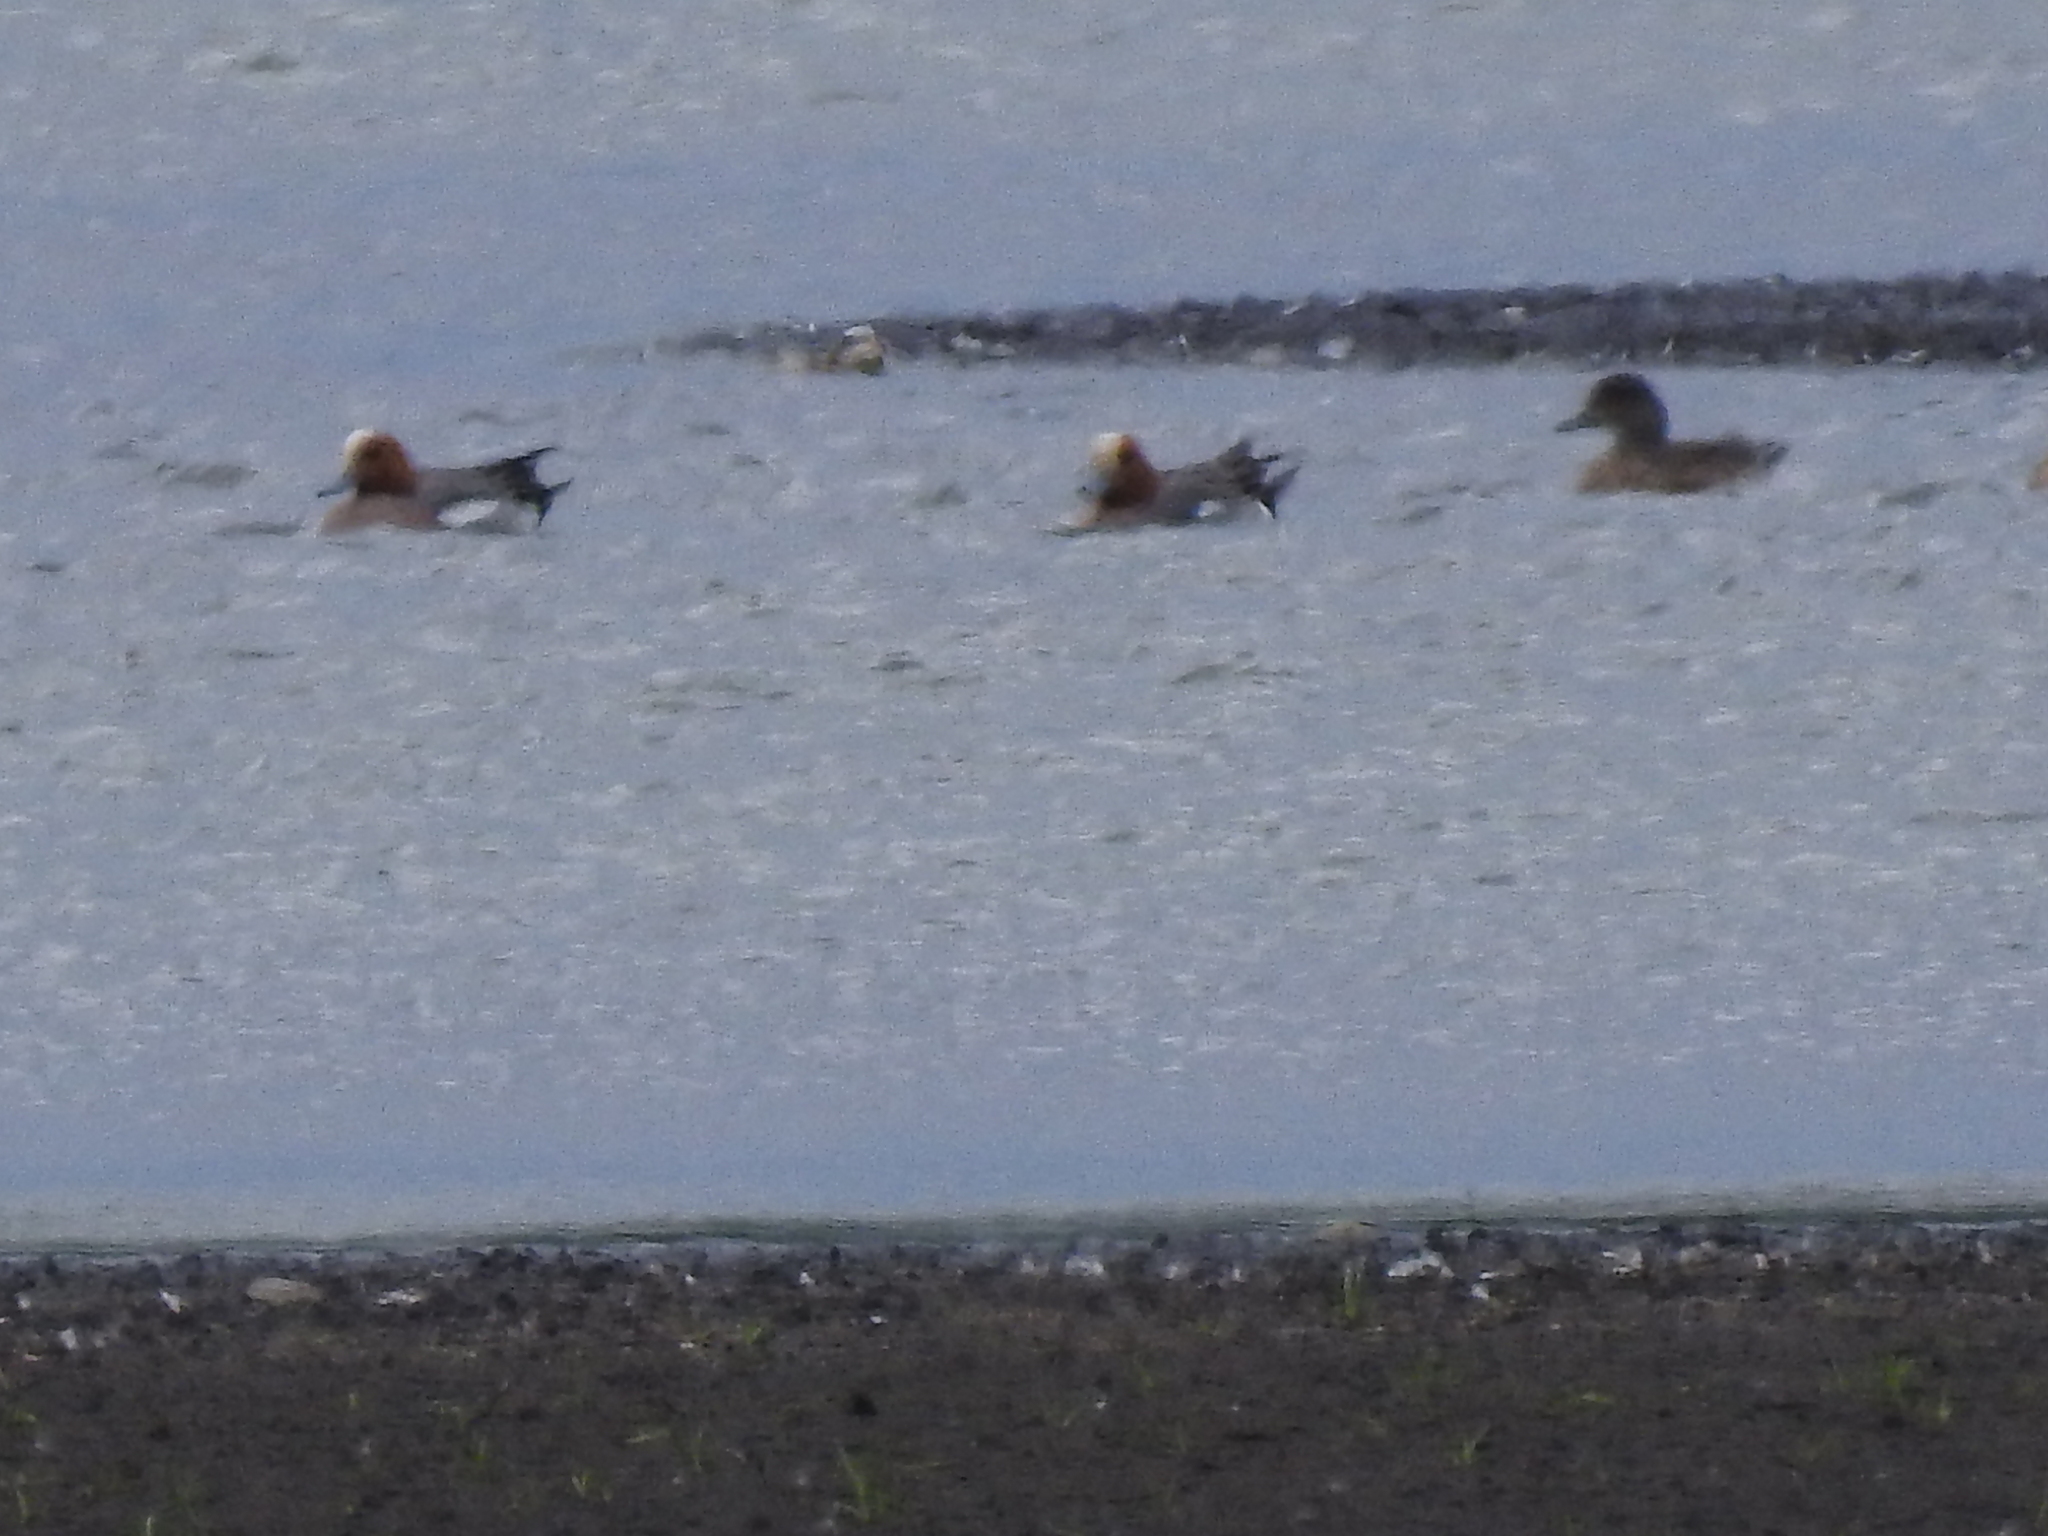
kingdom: Animalia
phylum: Chordata
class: Aves
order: Anseriformes
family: Anatidae
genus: Mareca
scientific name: Mareca penelope
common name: Eurasian wigeon
